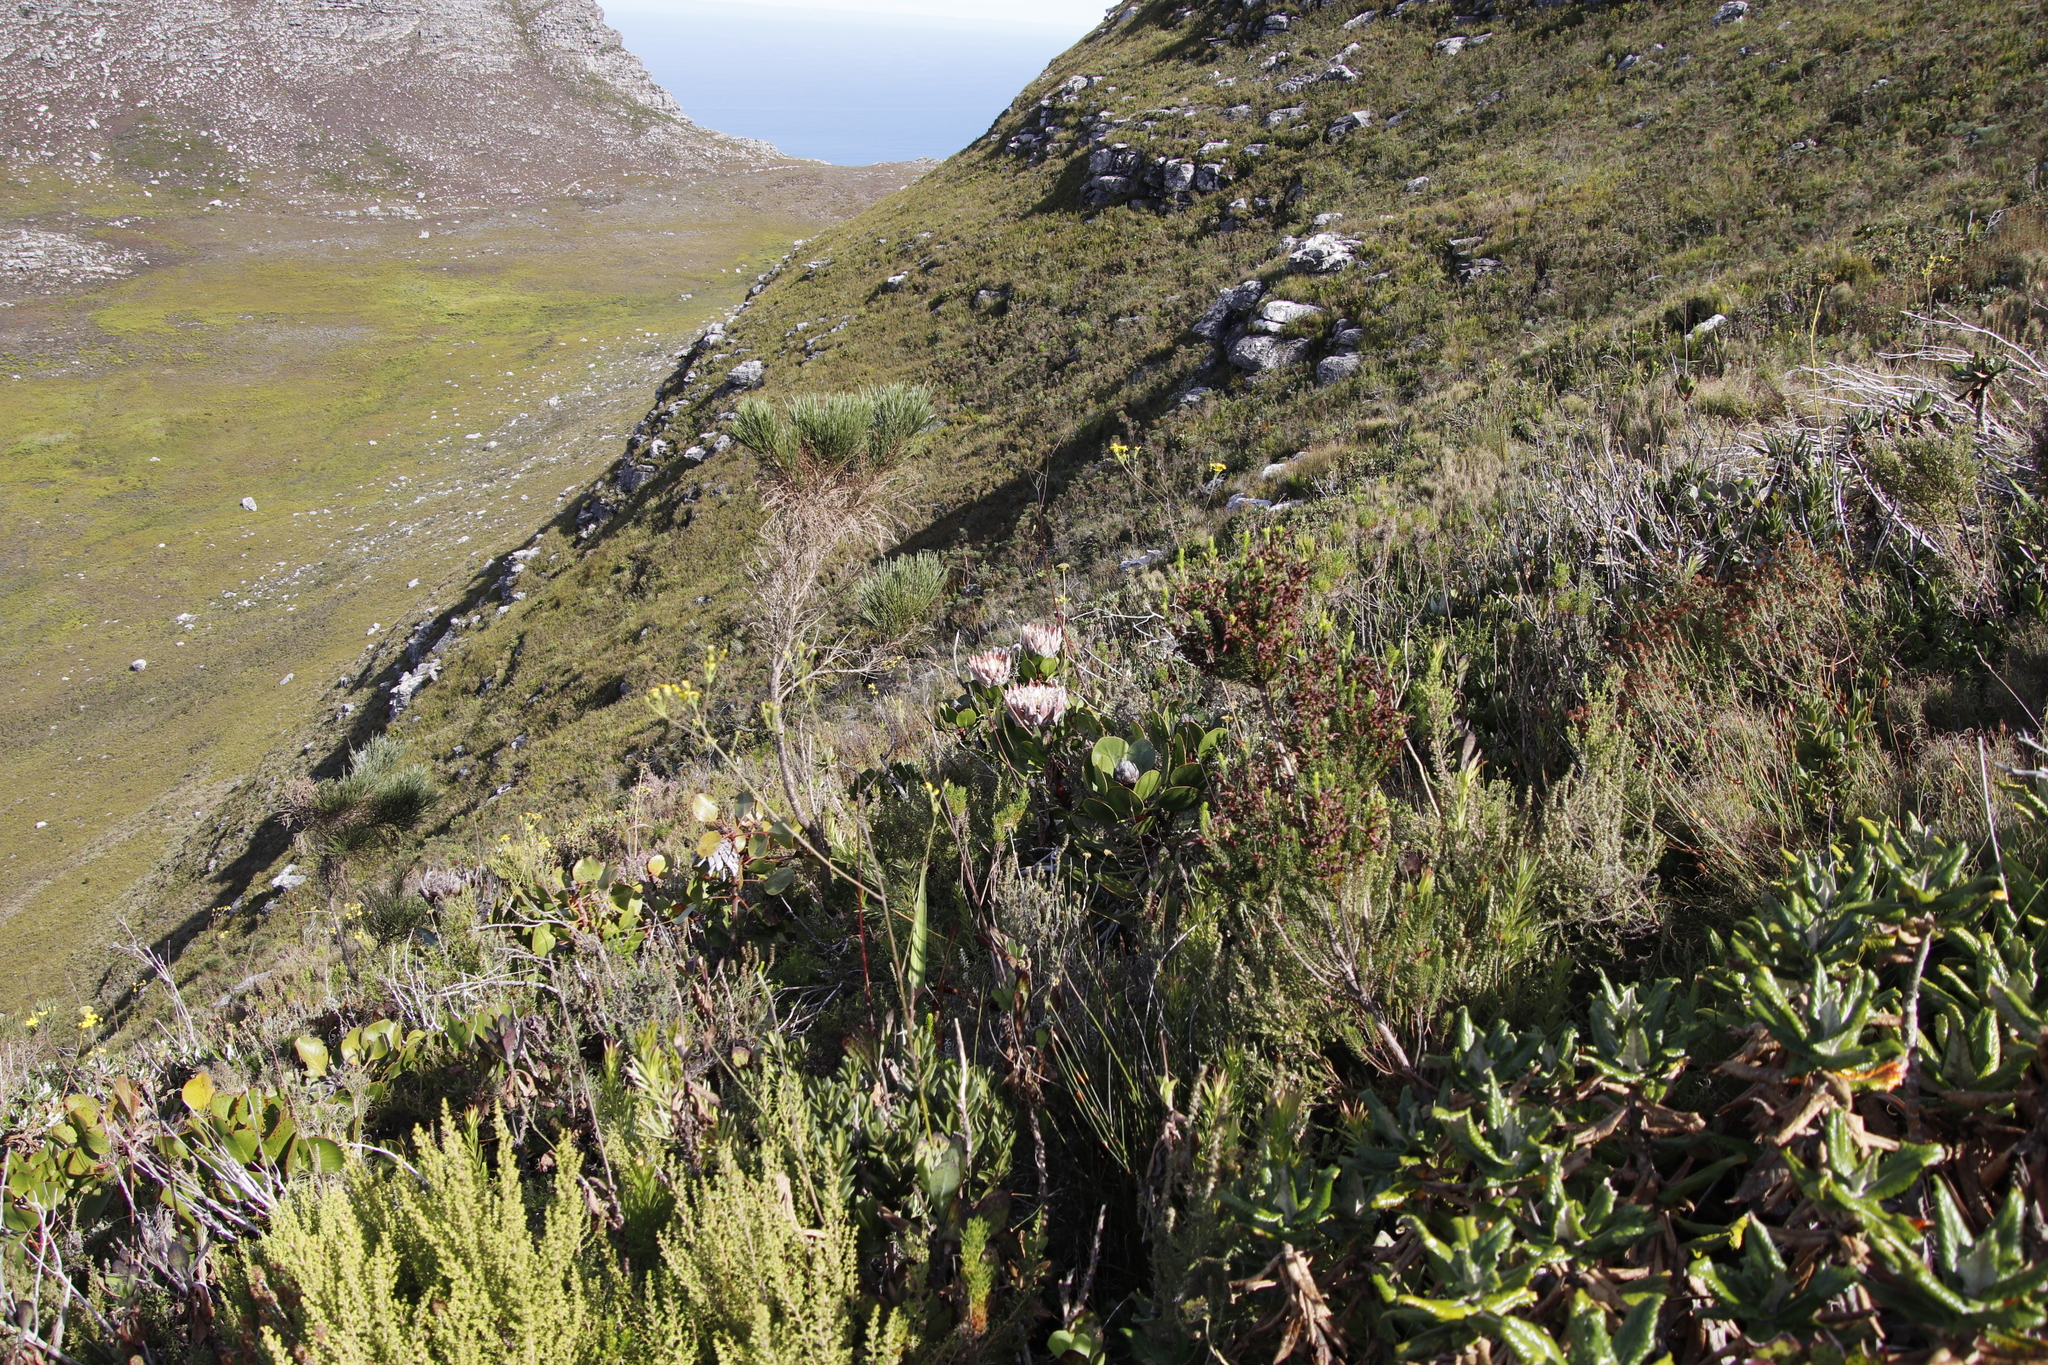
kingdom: Plantae
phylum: Tracheophyta
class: Magnoliopsida
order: Proteales
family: Proteaceae
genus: Protea
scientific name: Protea cynaroides
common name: King protea
